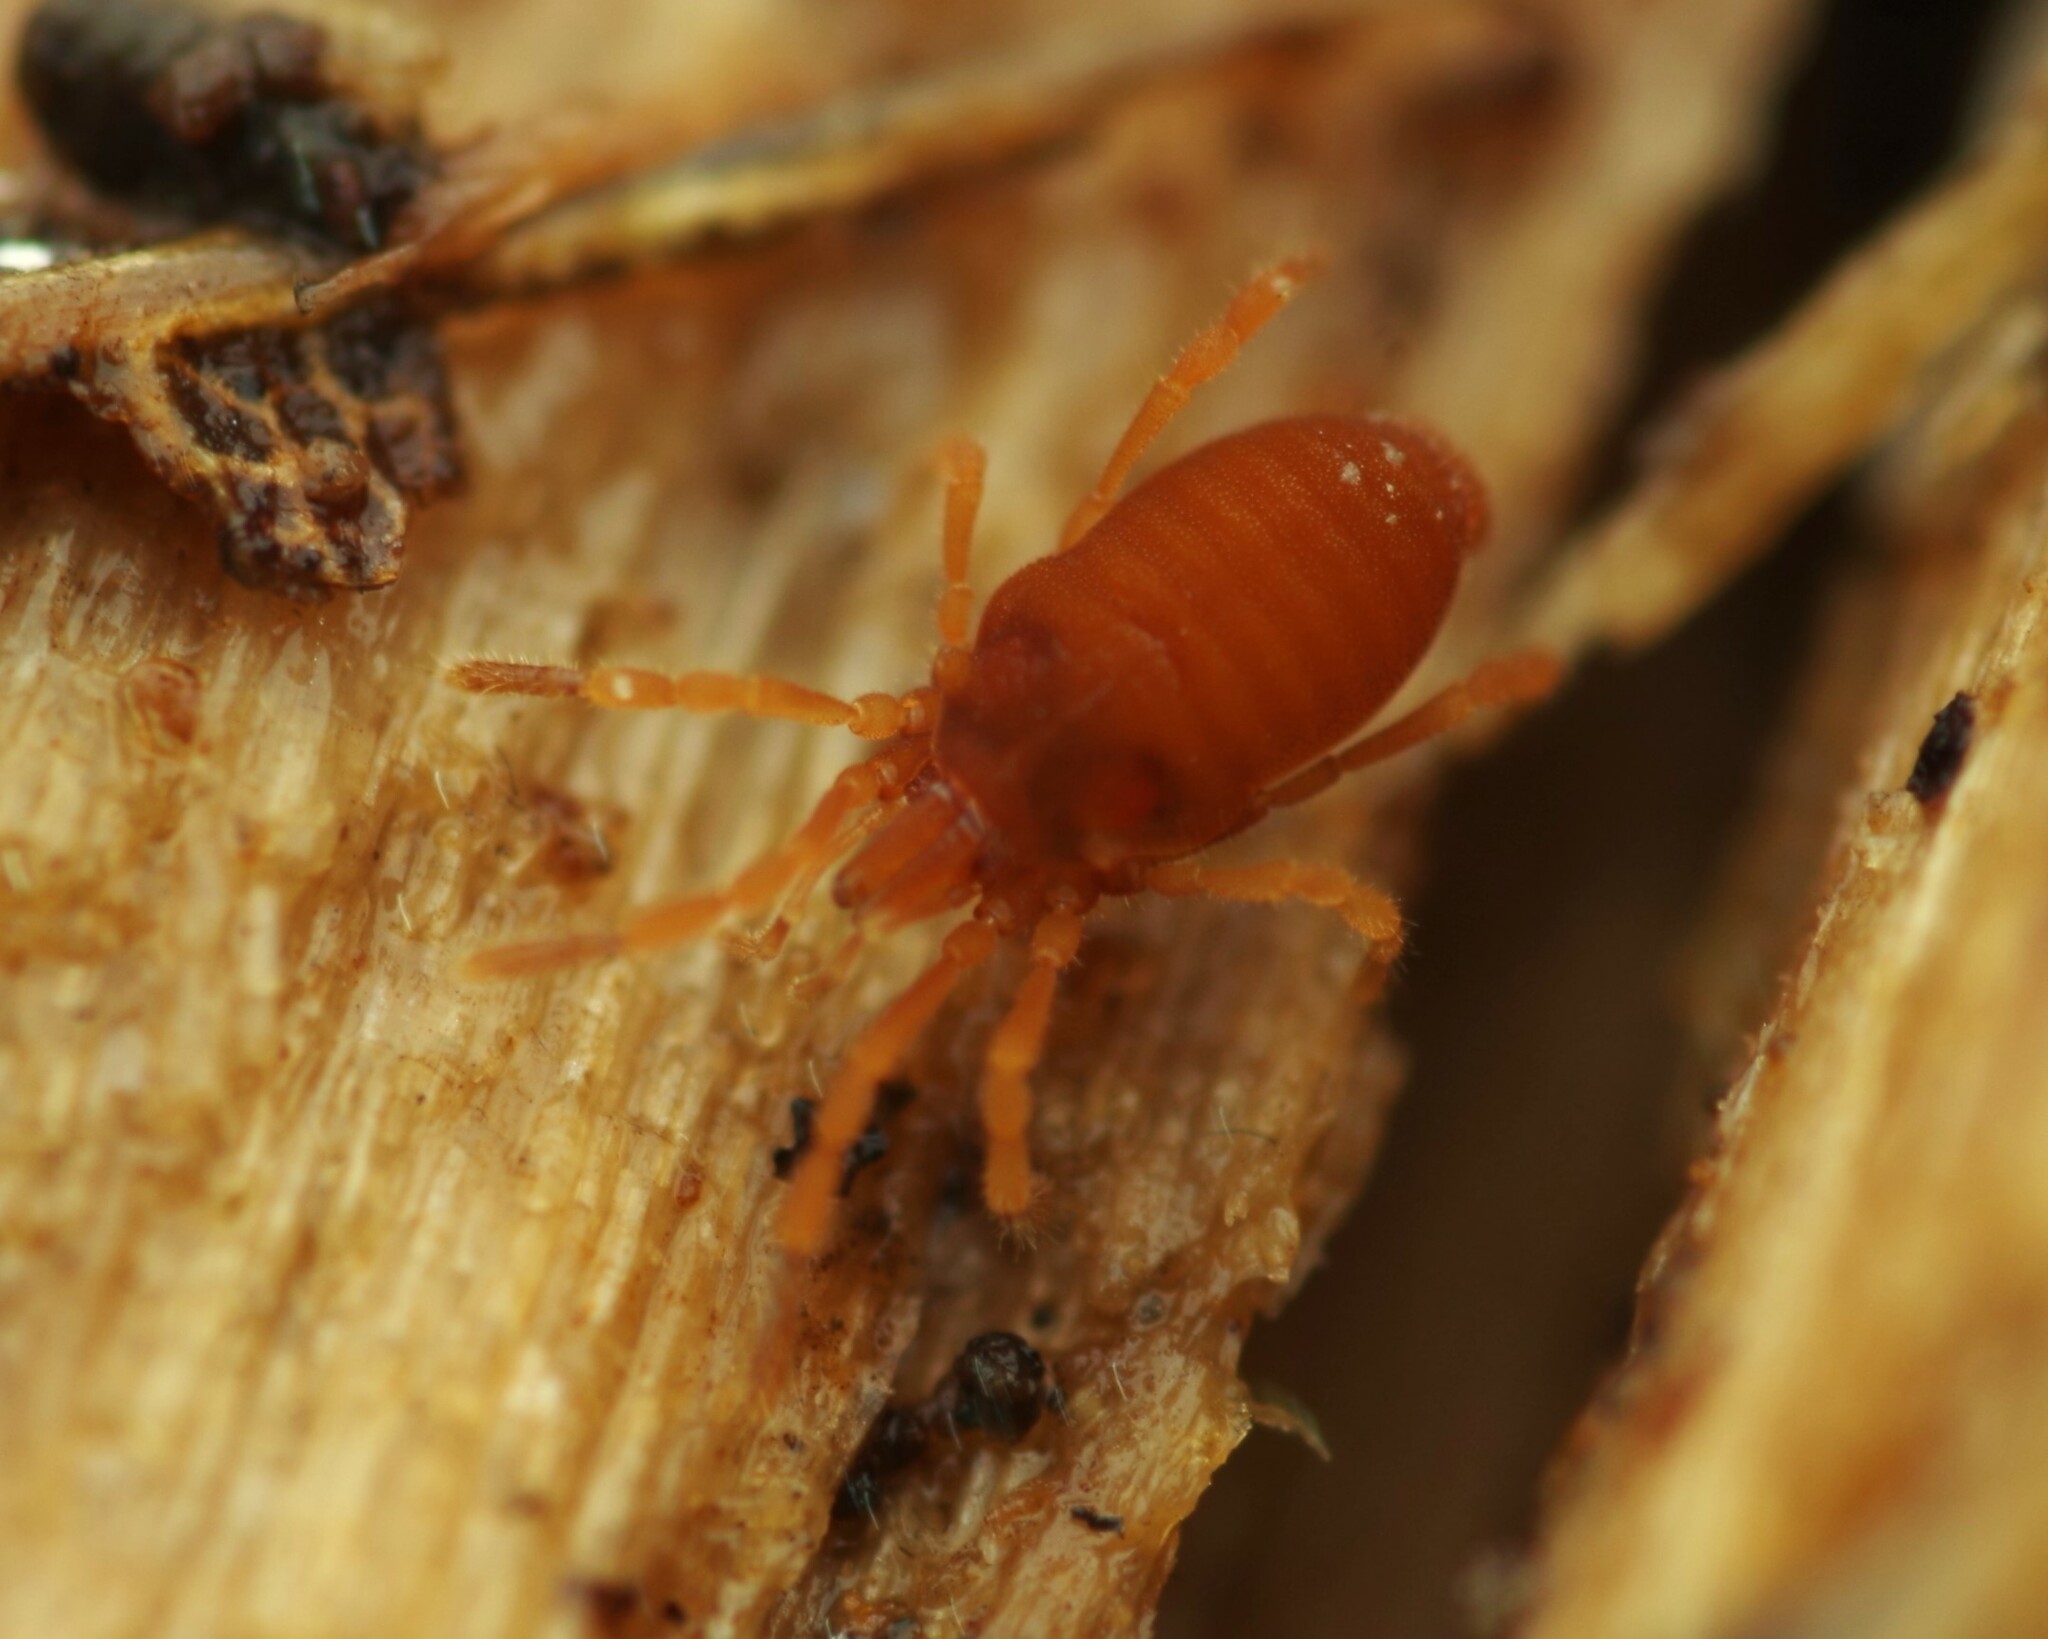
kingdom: Animalia
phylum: Arthropoda
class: Arachnida
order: Opiliones
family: Sironidae
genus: Siro
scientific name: Siro rubens
